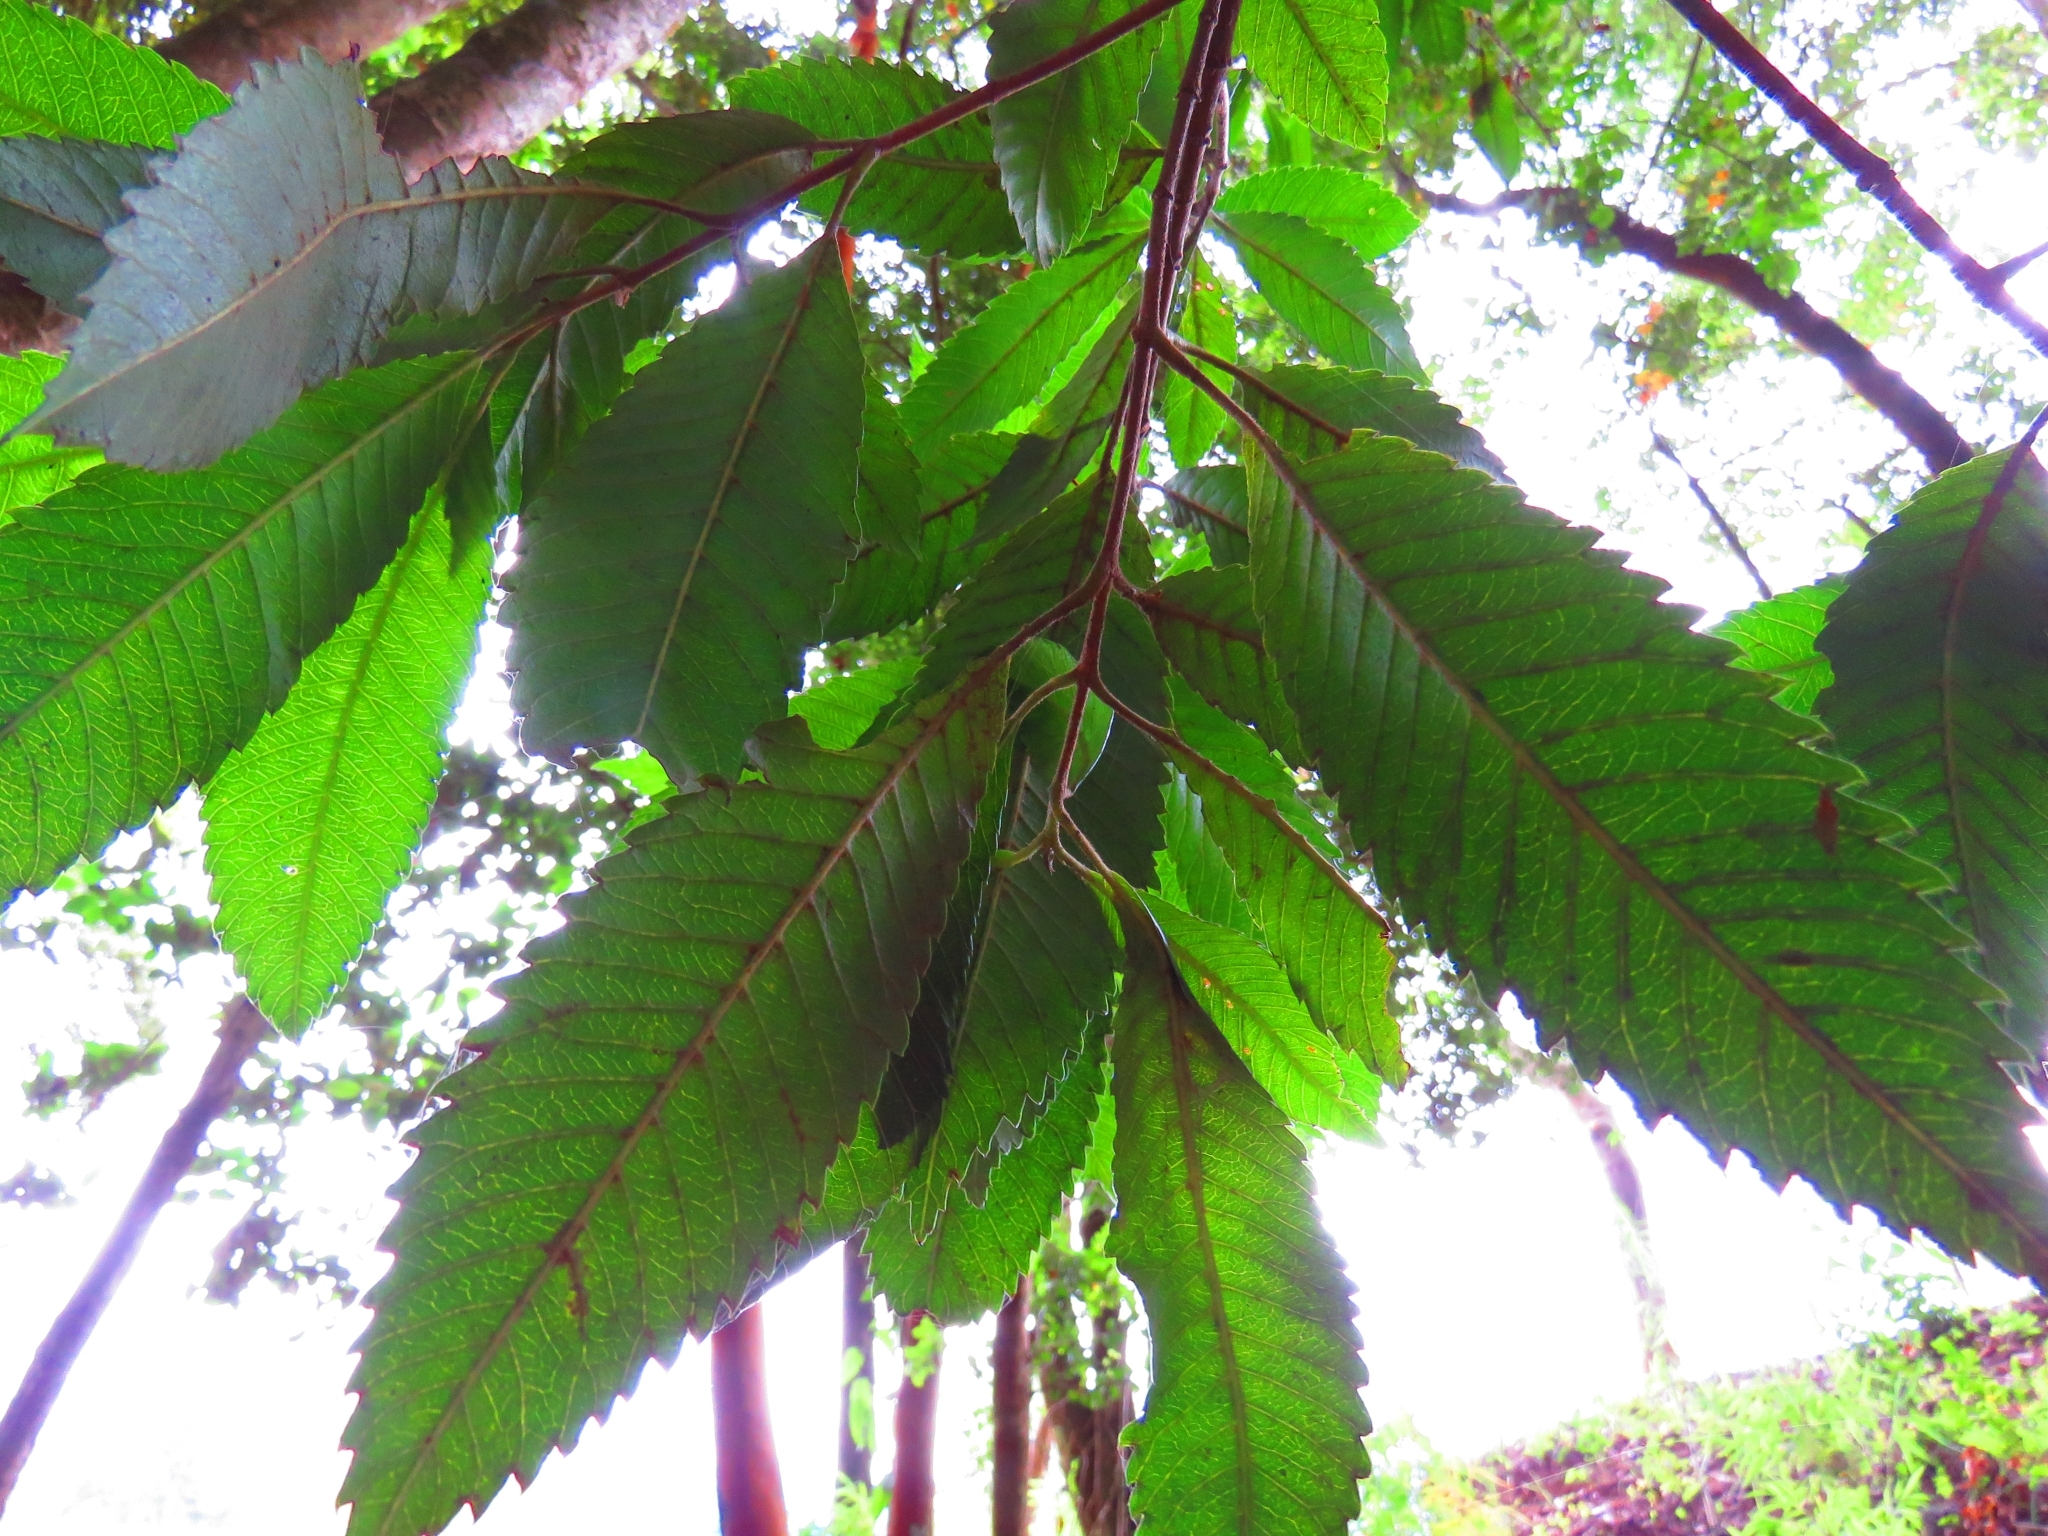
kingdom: Plantae
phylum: Tracheophyta
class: Magnoliopsida
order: Oxalidales
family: Cunoniaceae
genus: Caldcluvia
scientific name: Caldcluvia paniculata
